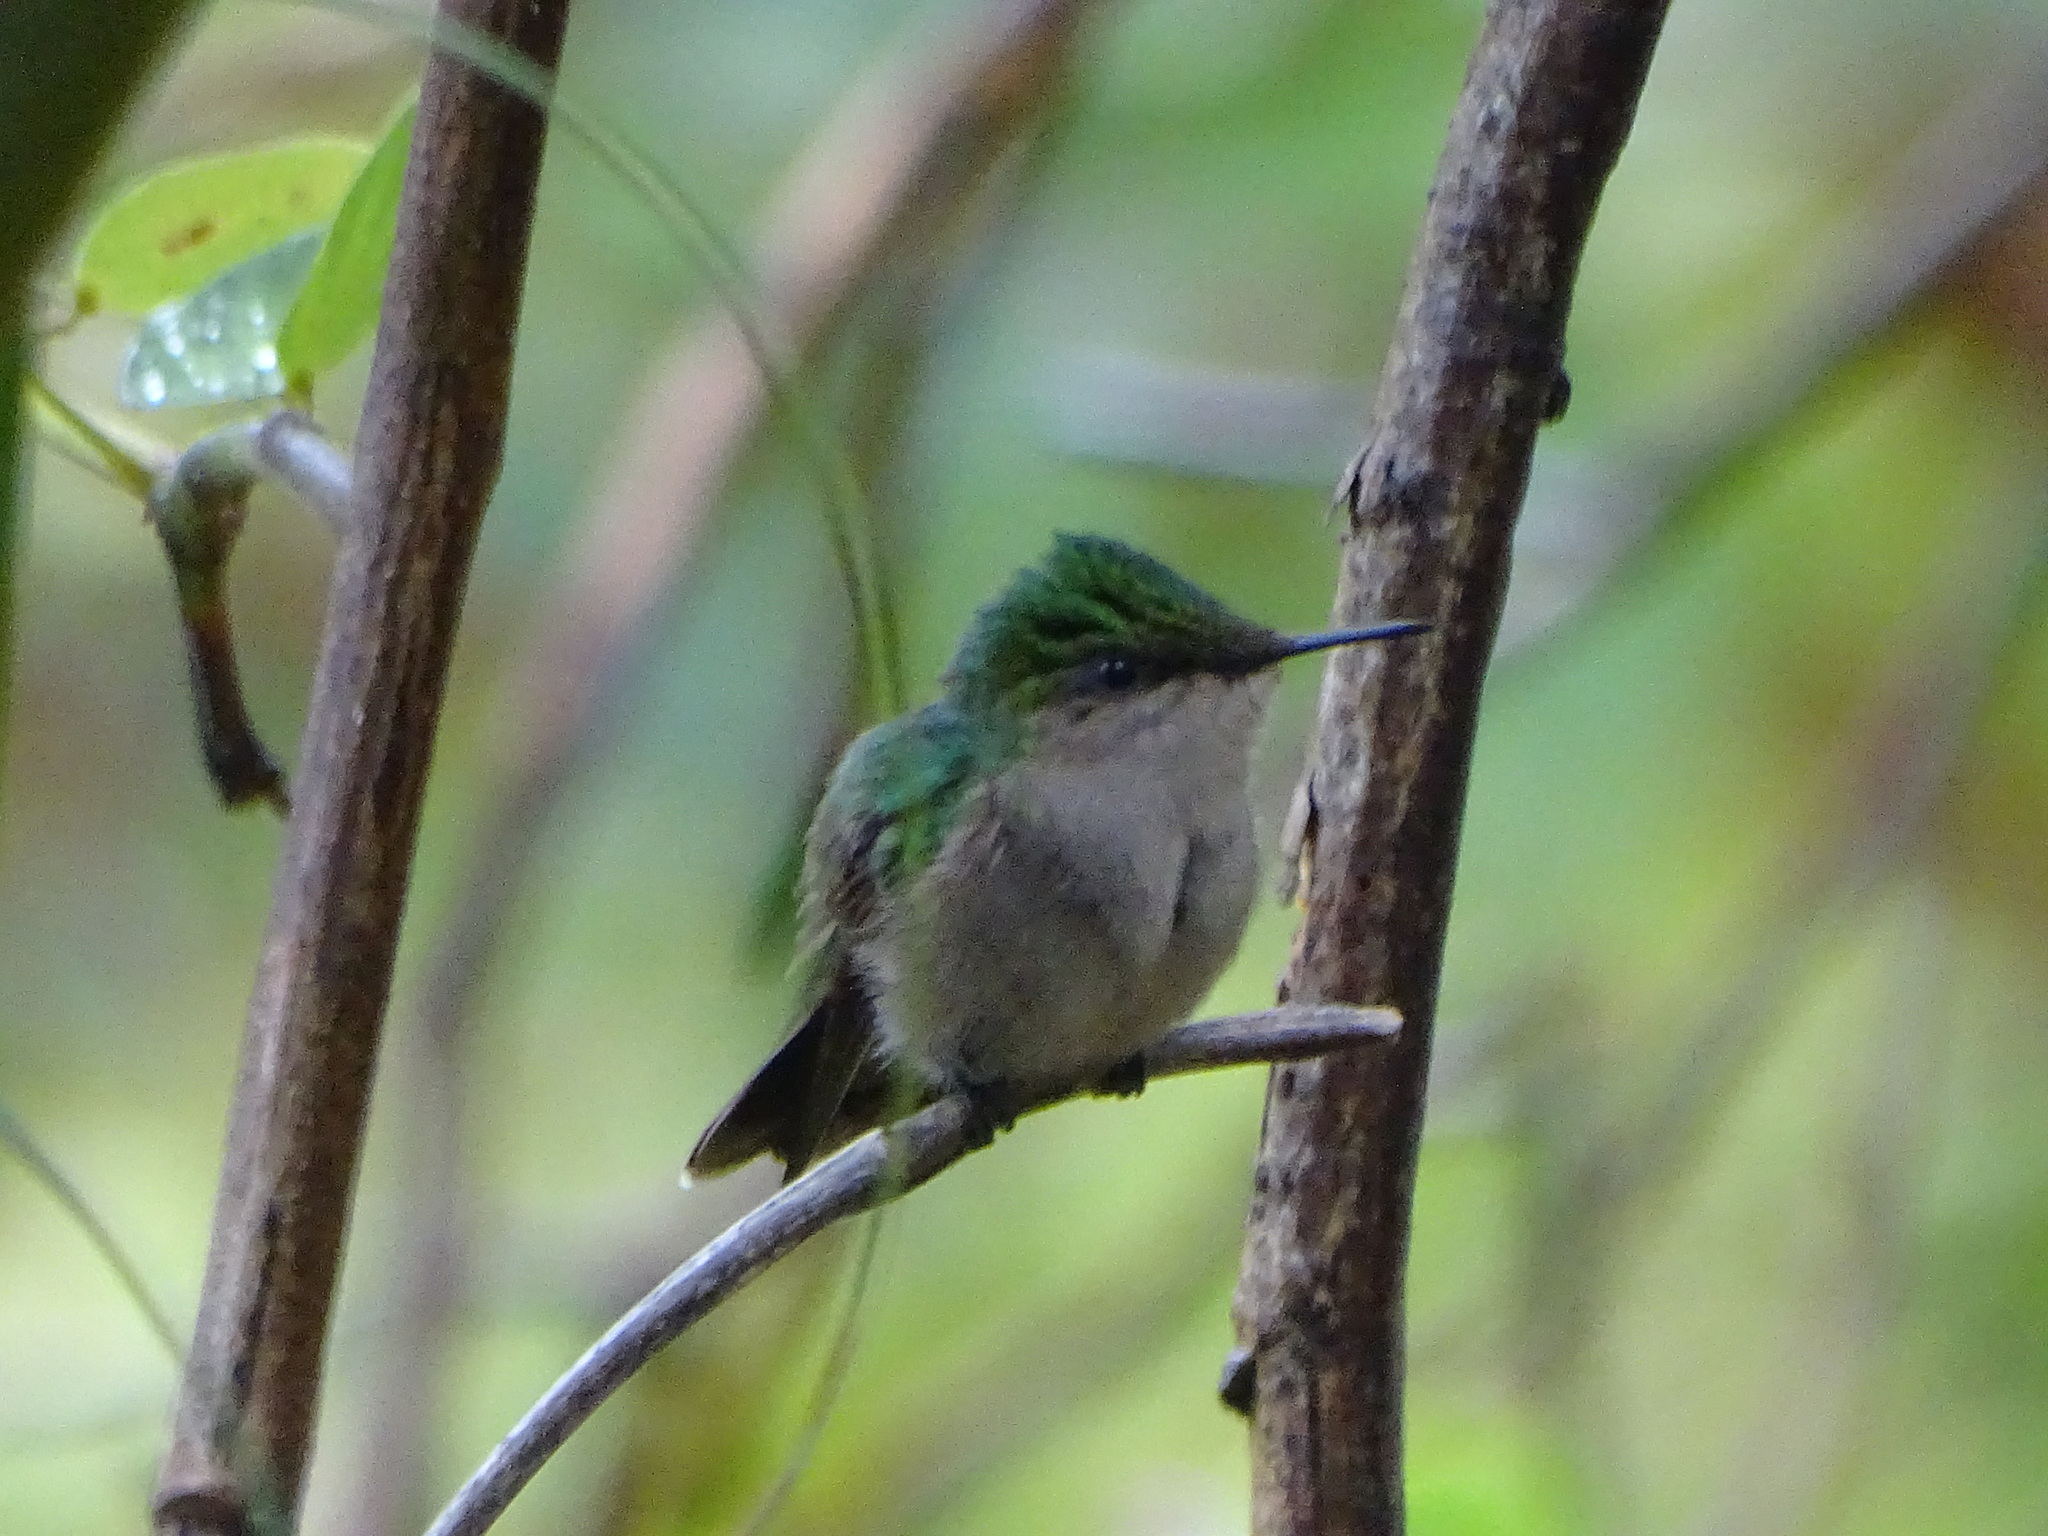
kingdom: Animalia
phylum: Chordata
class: Aves
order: Apodiformes
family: Trochilidae
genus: Orthorhyncus
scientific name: Orthorhyncus cristatus
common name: Antillean crested hummingbird
